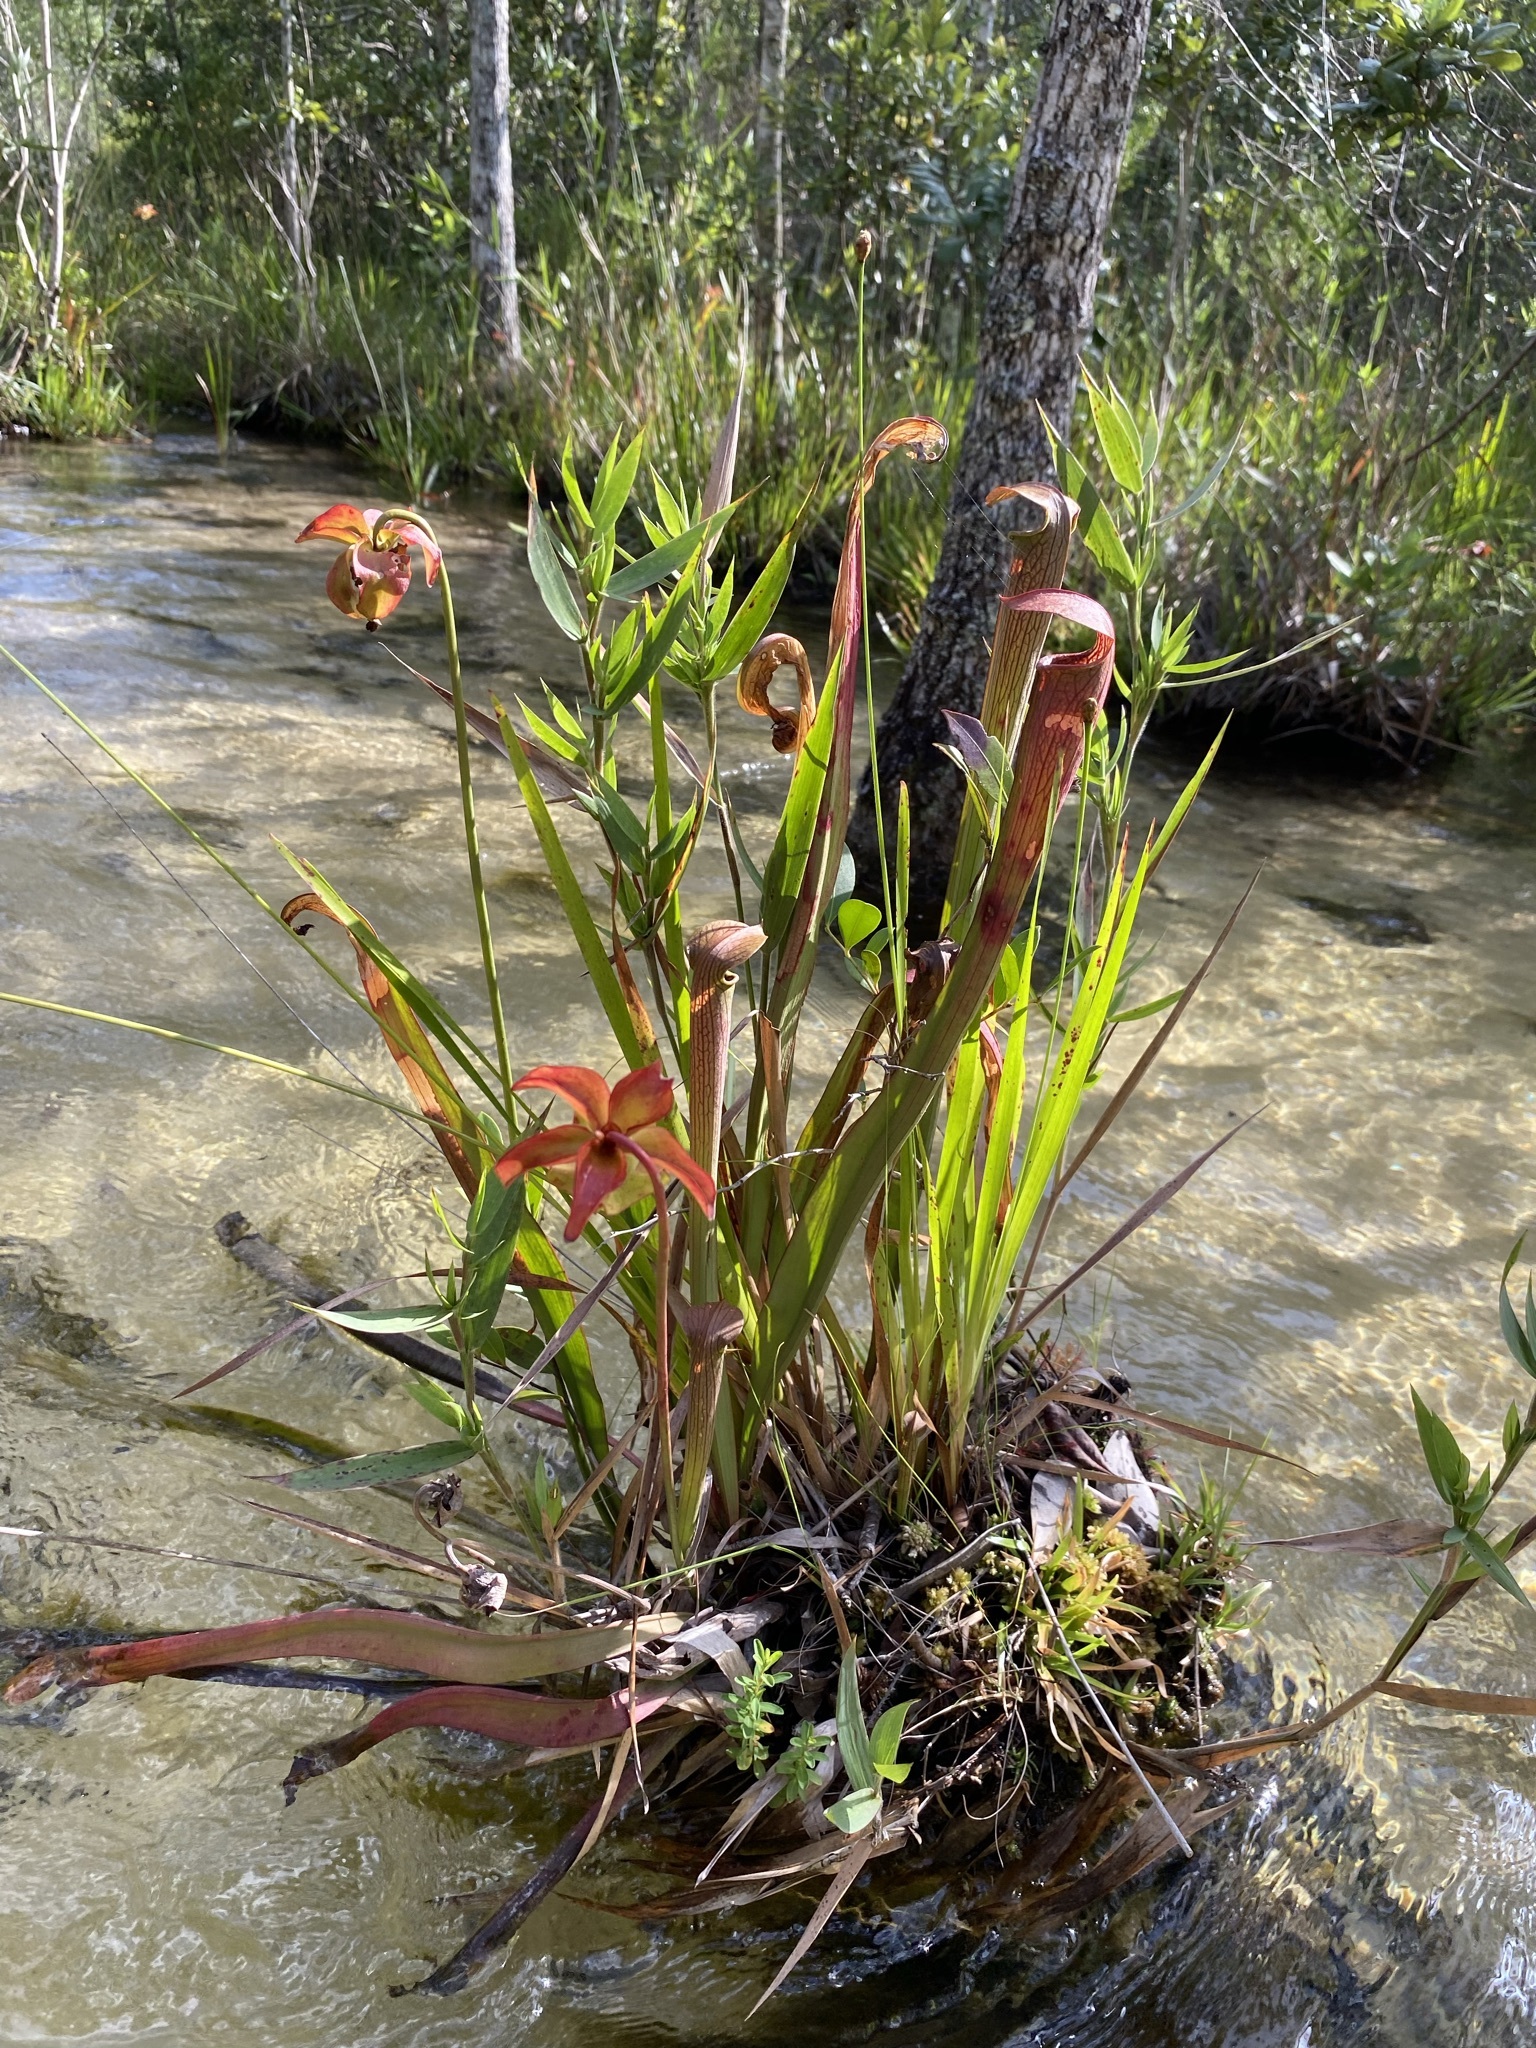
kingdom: Plantae
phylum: Tracheophyta
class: Magnoliopsida
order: Ericales
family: Sarraceniaceae
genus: Sarracenia
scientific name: Sarracenia rubra
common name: Sweet pitcherplant
